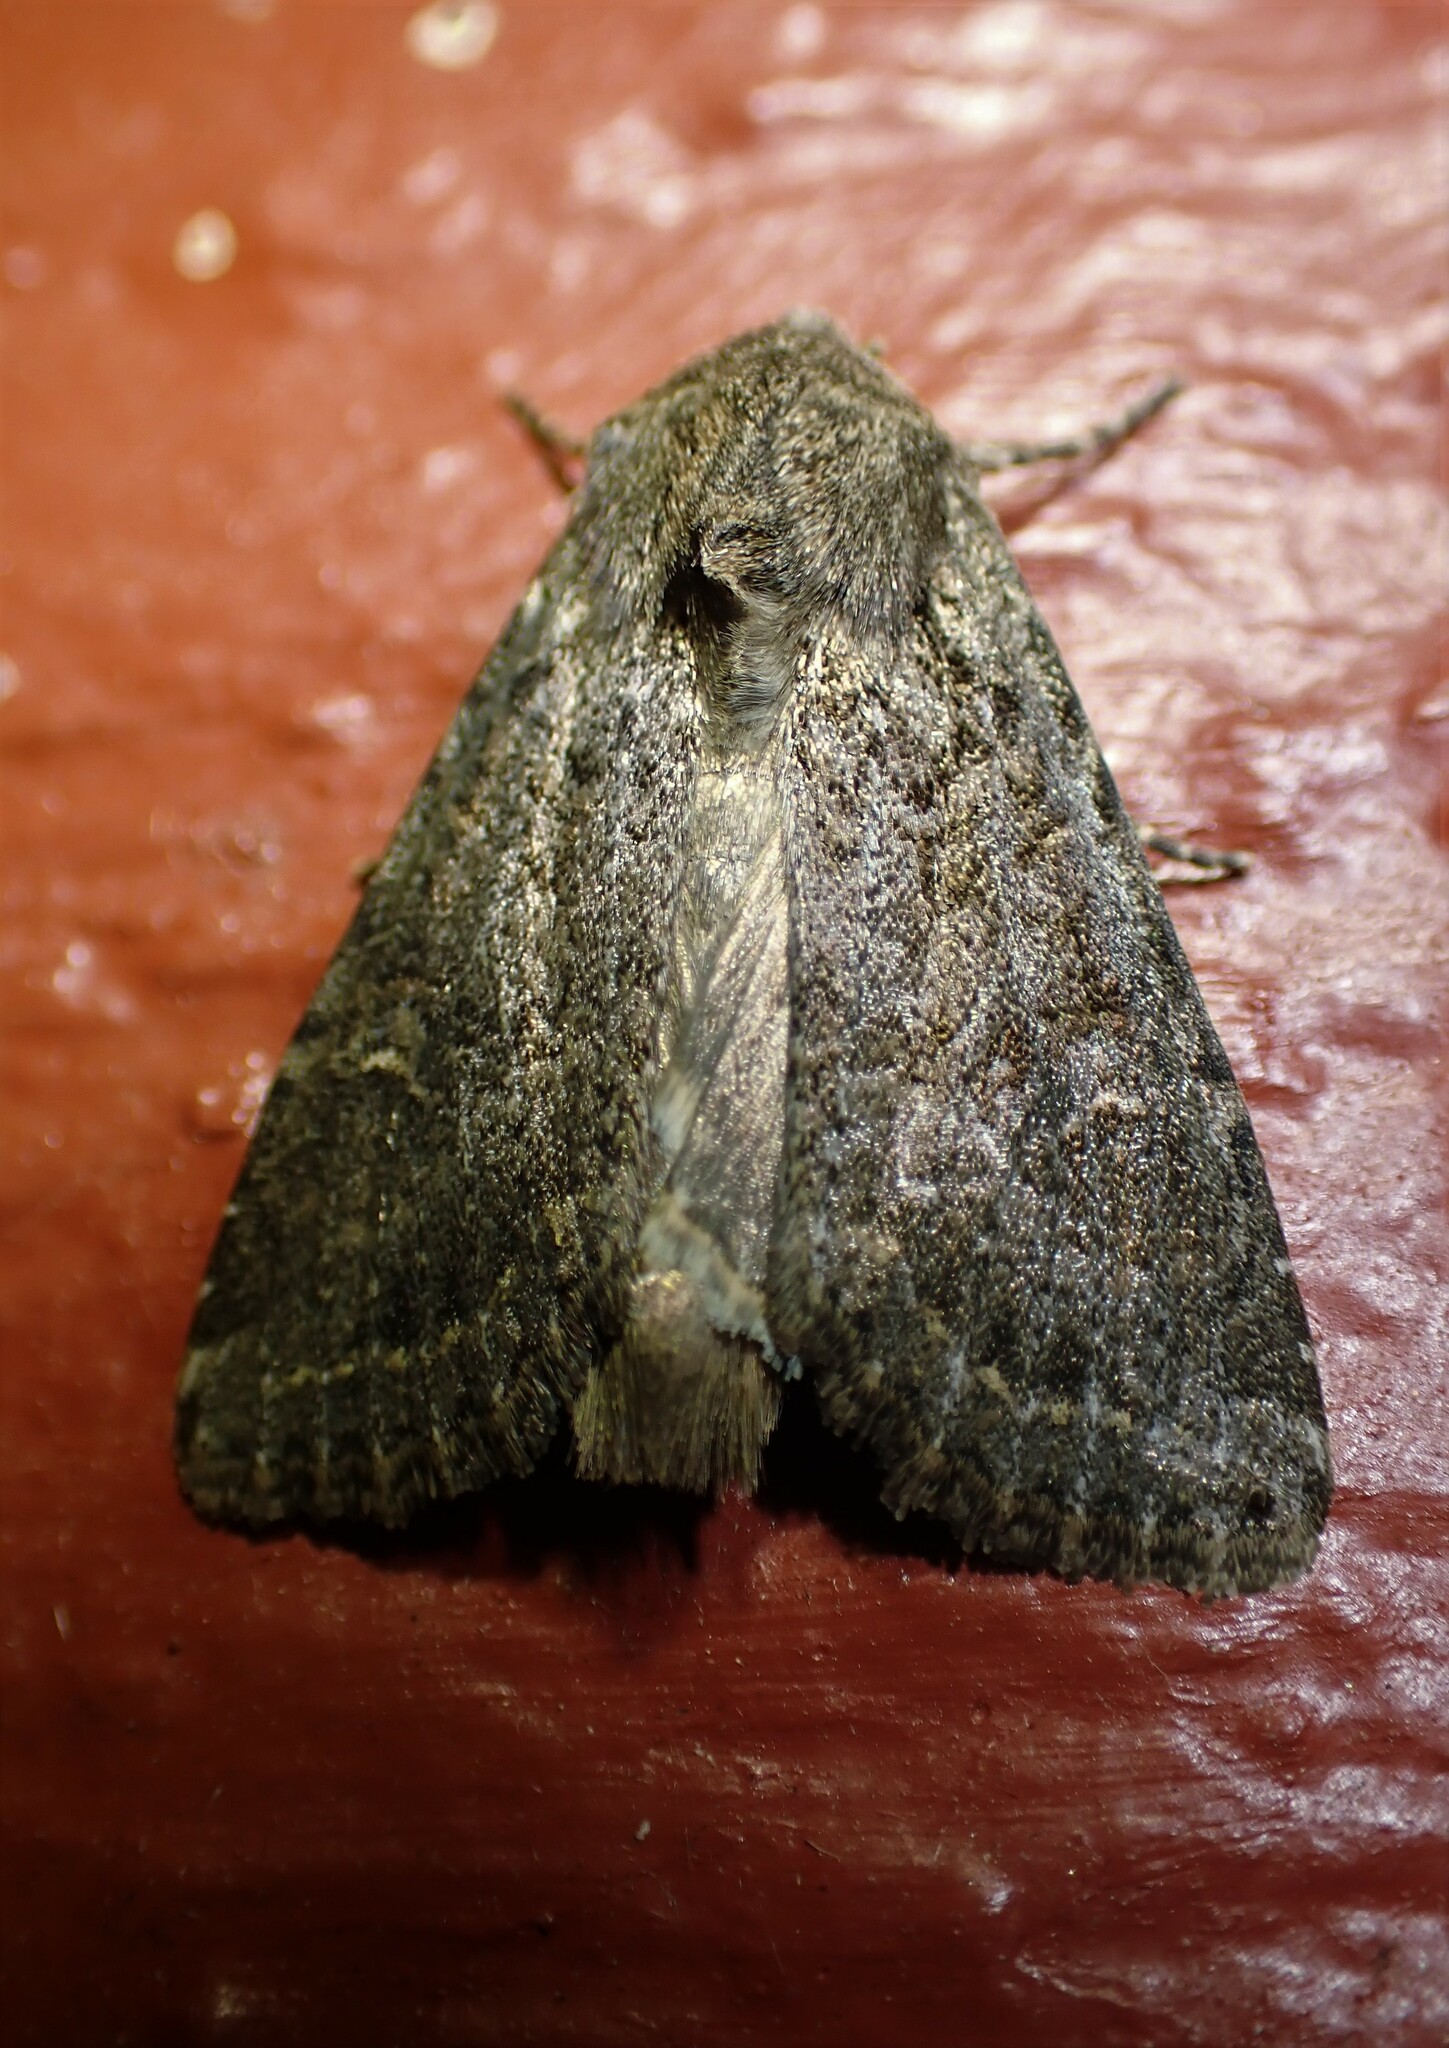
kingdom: Animalia
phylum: Arthropoda
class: Insecta
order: Lepidoptera
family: Noctuidae
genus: Apamea
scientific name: Apamea devastator
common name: Glassy cutworm
